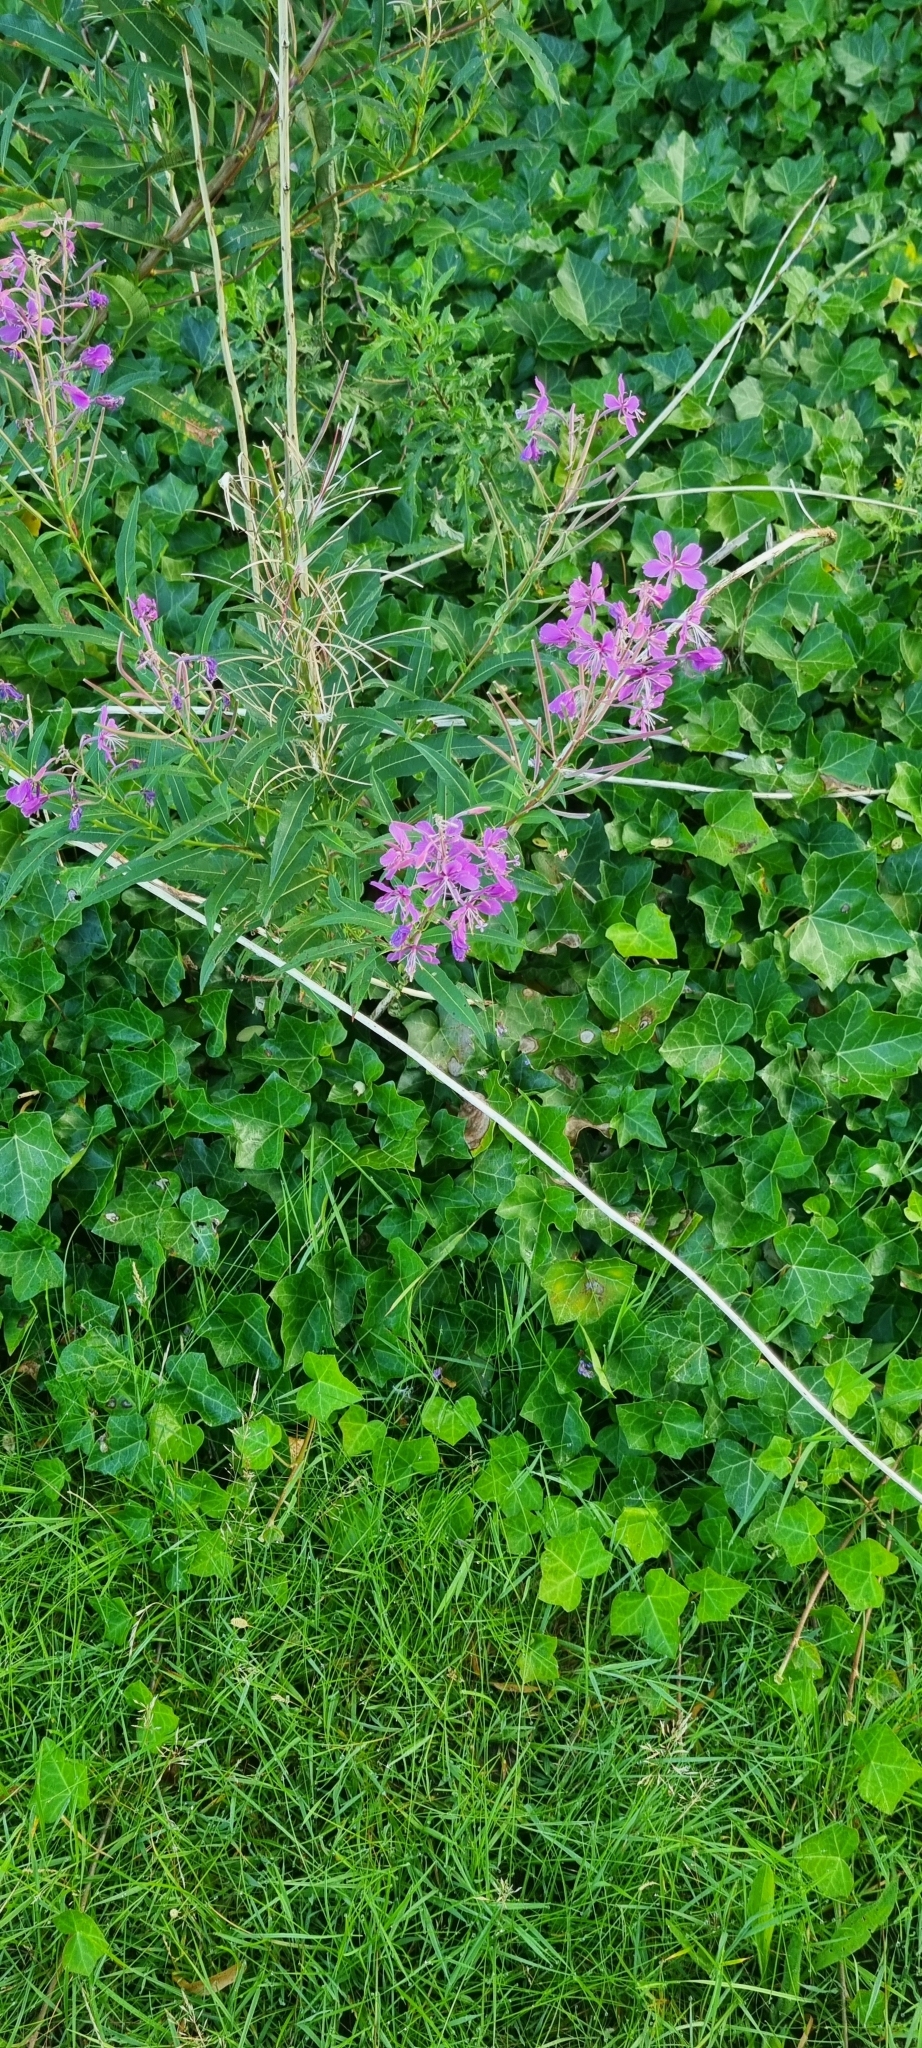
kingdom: Plantae
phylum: Tracheophyta
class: Magnoliopsida
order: Myrtales
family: Onagraceae
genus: Chamaenerion
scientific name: Chamaenerion angustifolium
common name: Fireweed
